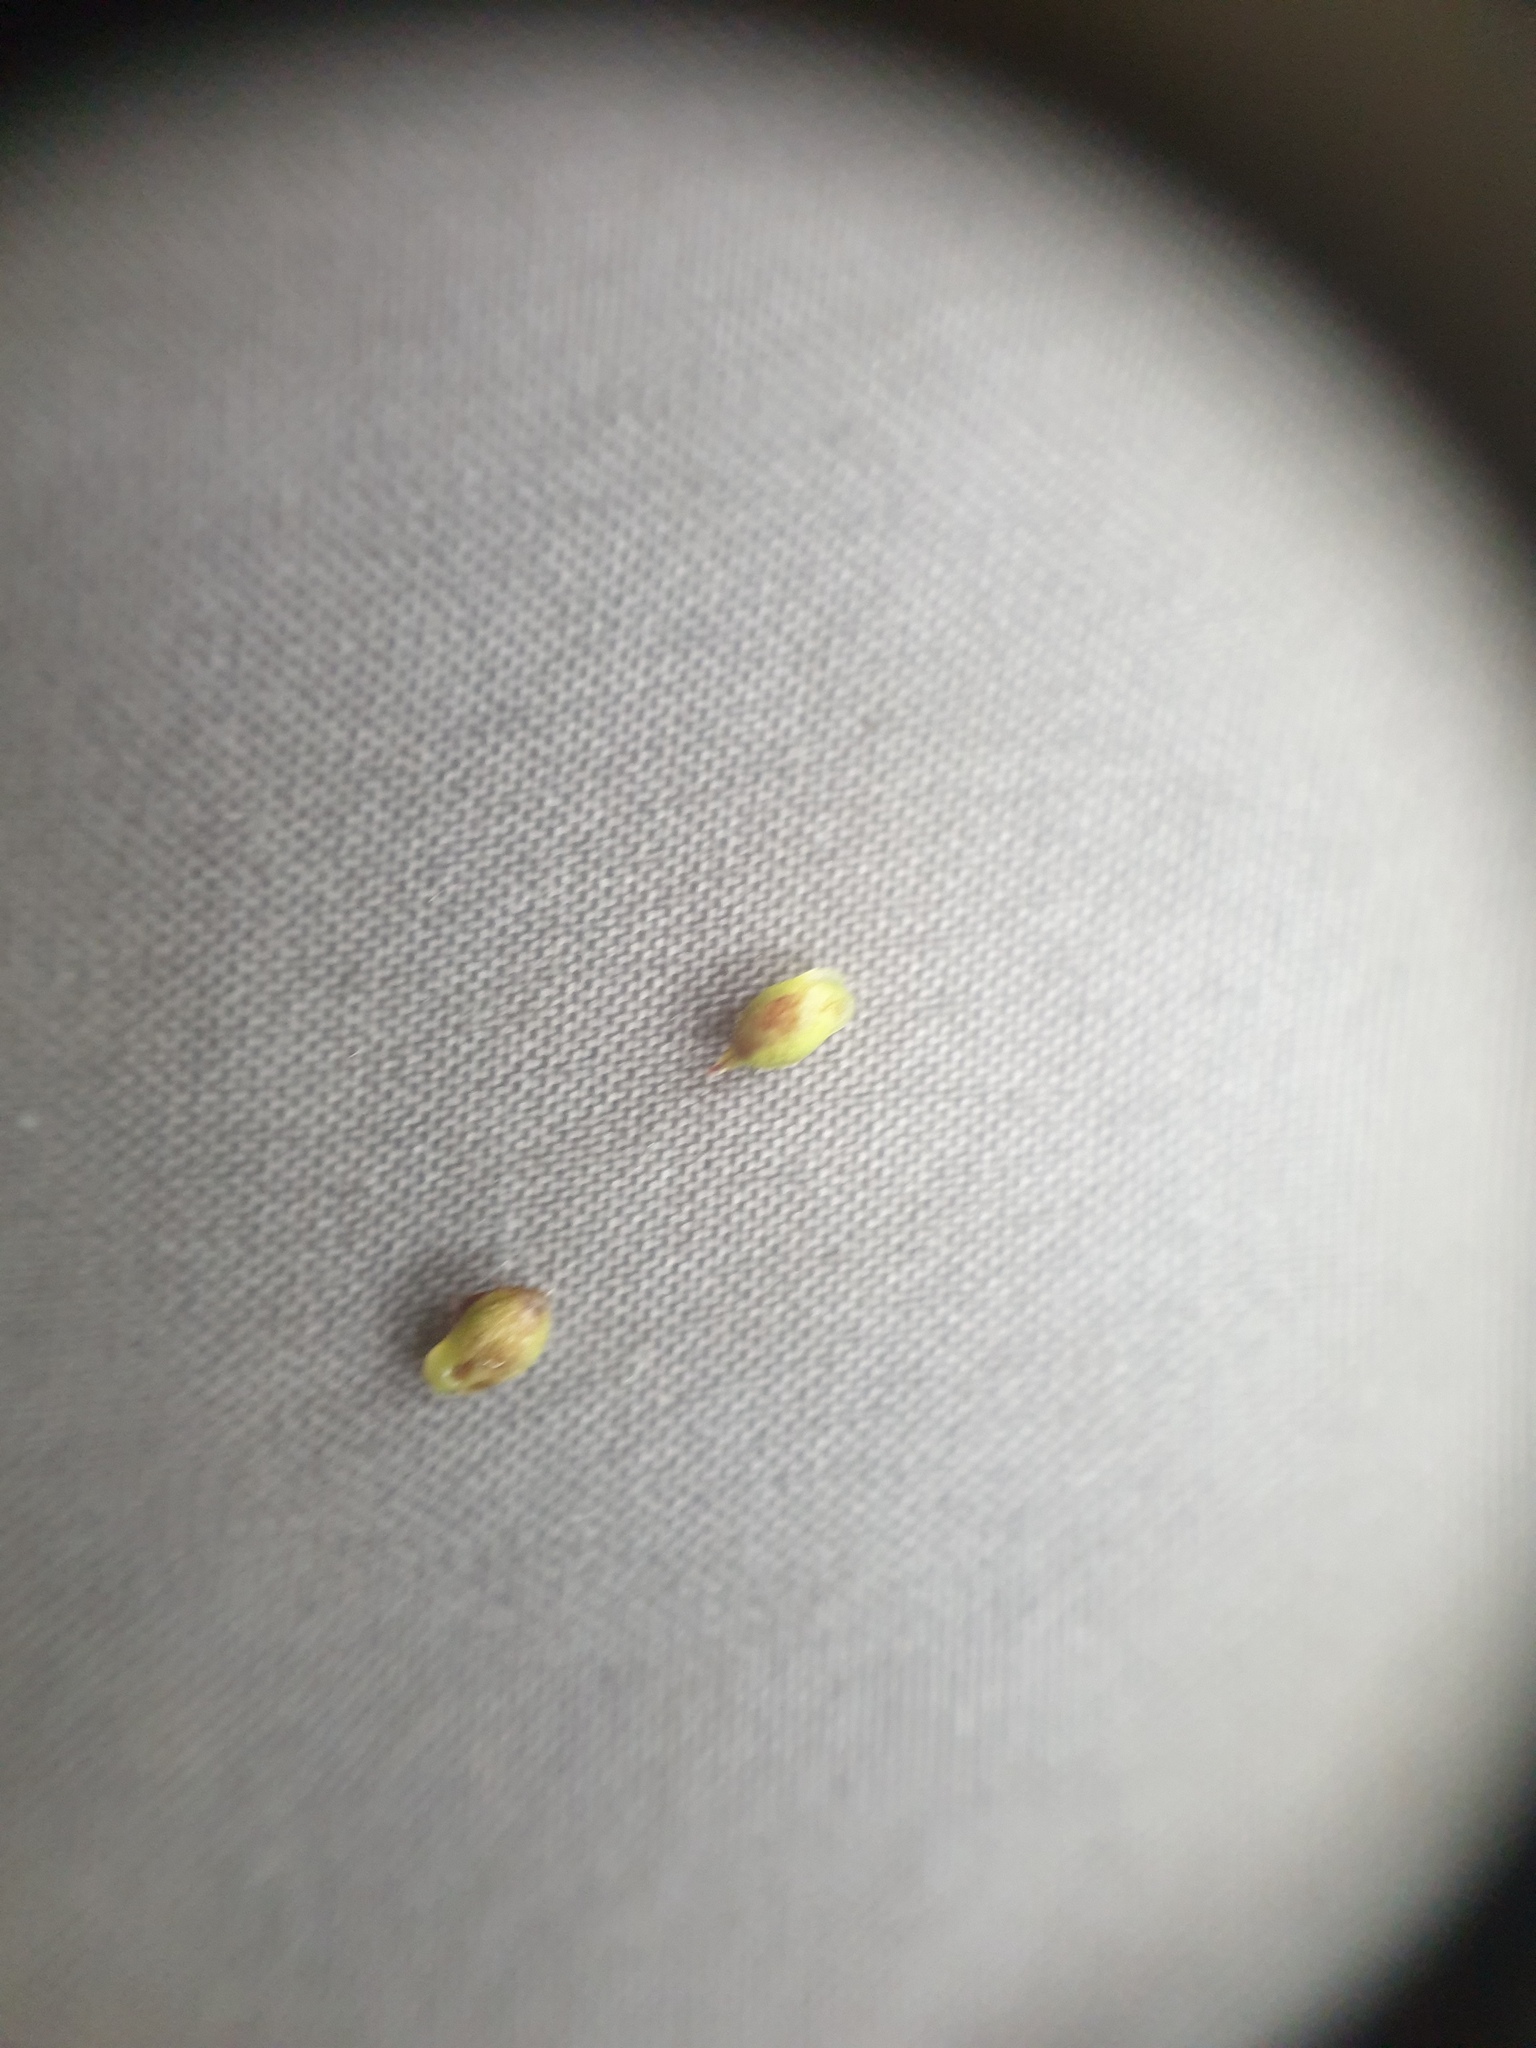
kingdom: Plantae
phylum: Tracheophyta
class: Liliopsida
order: Poales
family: Cyperaceae
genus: Carex
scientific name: Carex pensylvanica
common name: Common oak sedge
